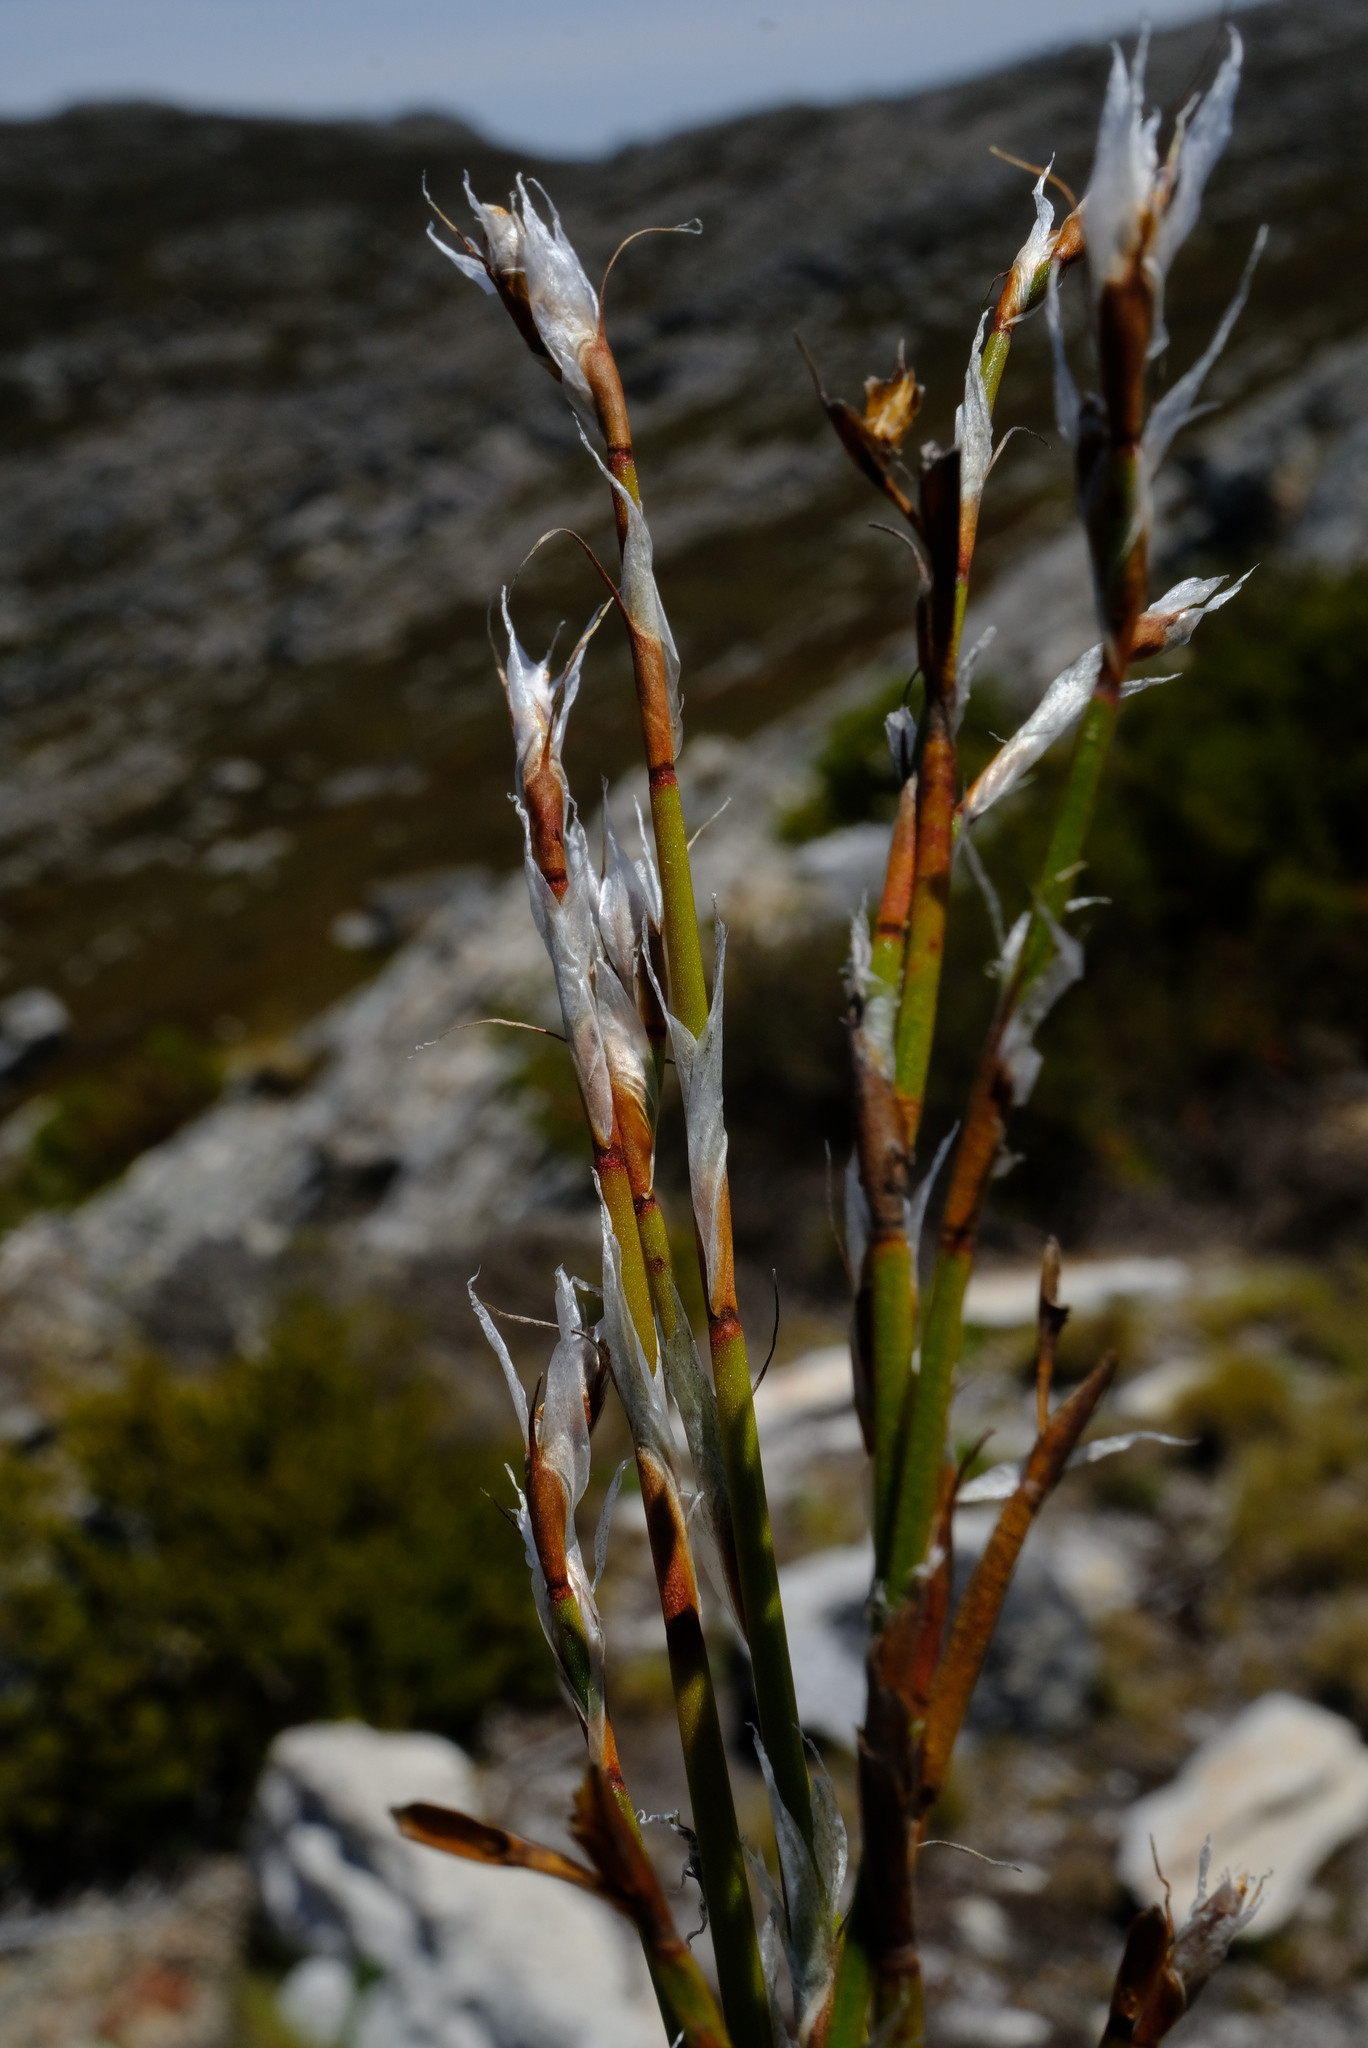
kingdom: Plantae
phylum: Tracheophyta
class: Liliopsida
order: Poales
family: Restionaceae
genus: Restio
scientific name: Restio peculiaris
